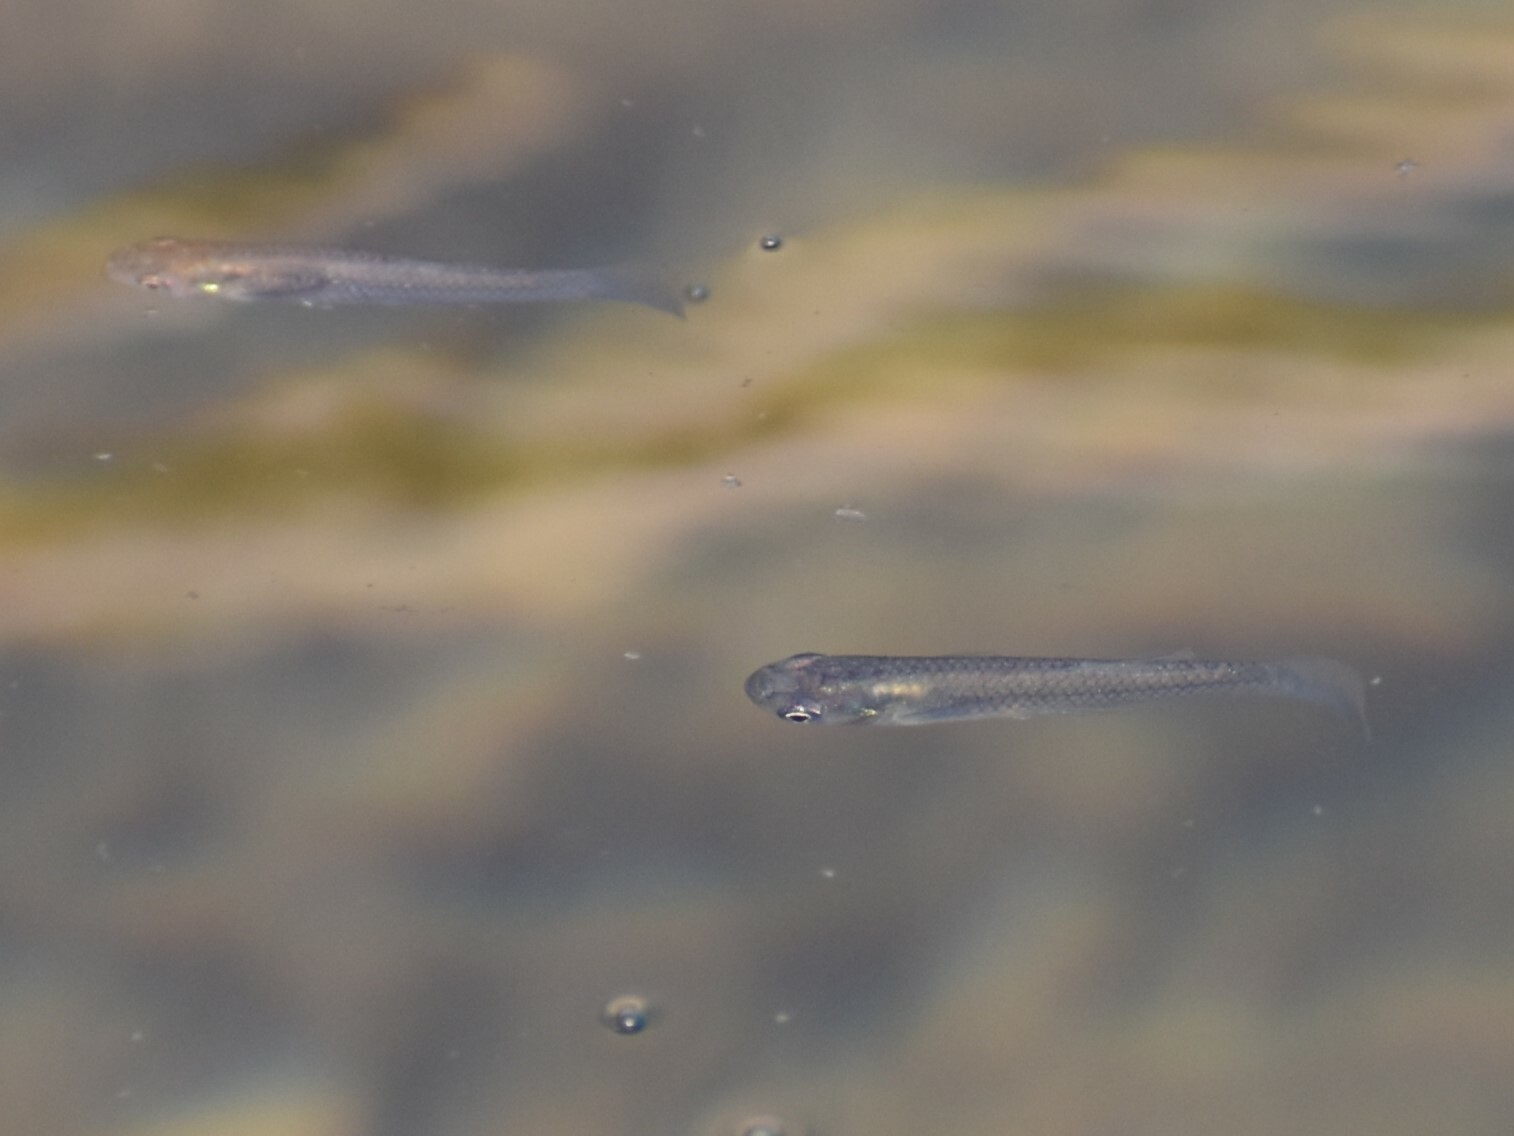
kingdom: Animalia
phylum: Chordata
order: Cyprinodontiformes
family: Poeciliidae
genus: Gambusia
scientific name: Gambusia affinis
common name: Mosquitofish
